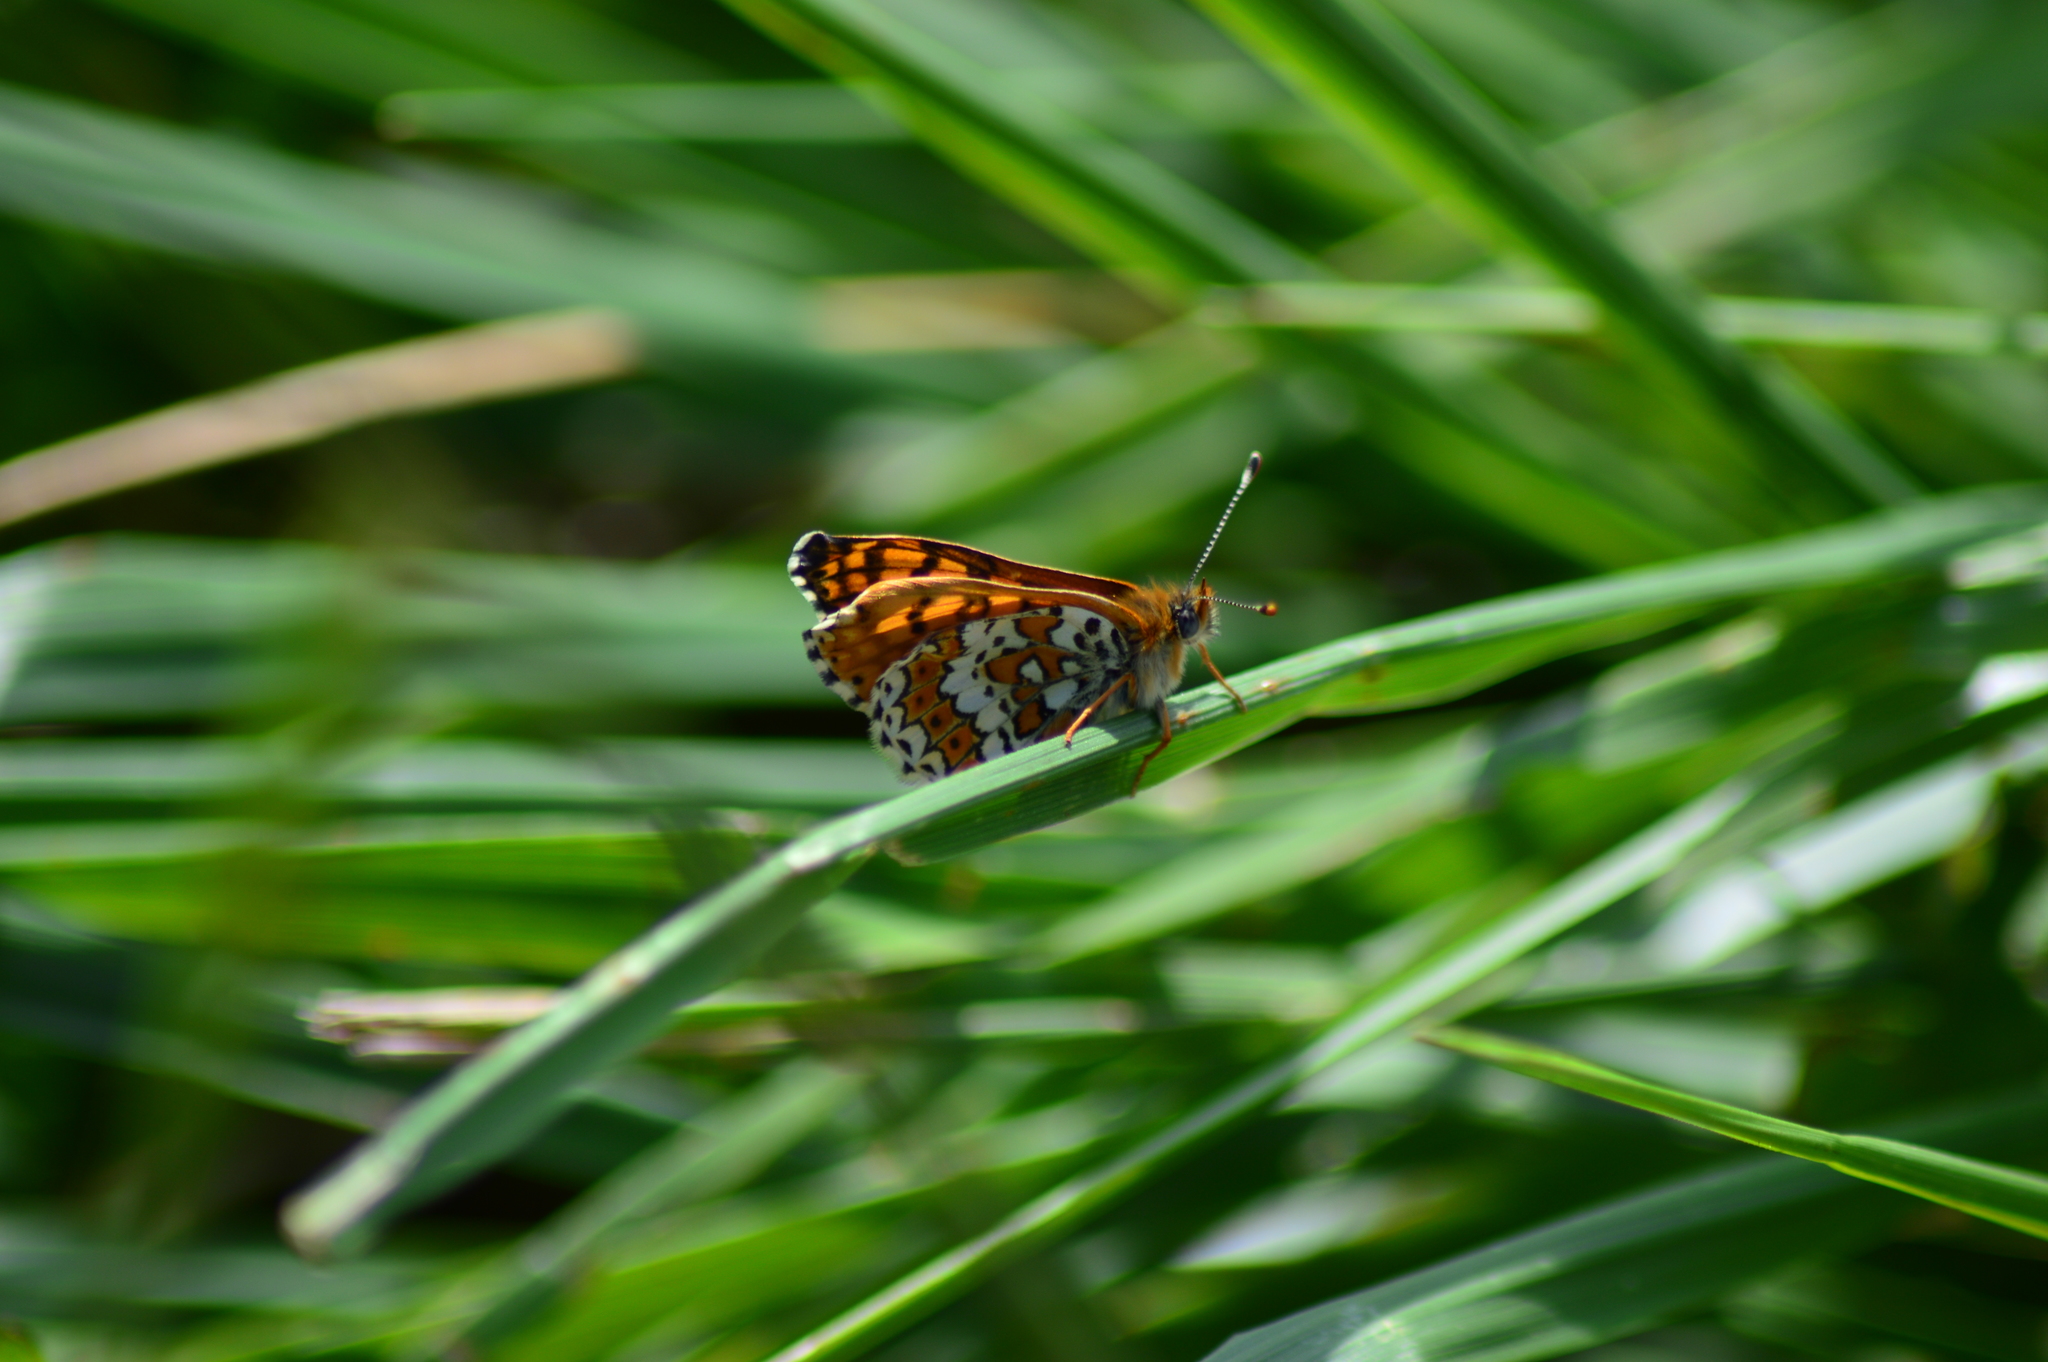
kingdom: Animalia
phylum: Arthropoda
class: Insecta
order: Lepidoptera
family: Nymphalidae
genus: Melitaea
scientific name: Melitaea cinxia
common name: Glanville fritillary
